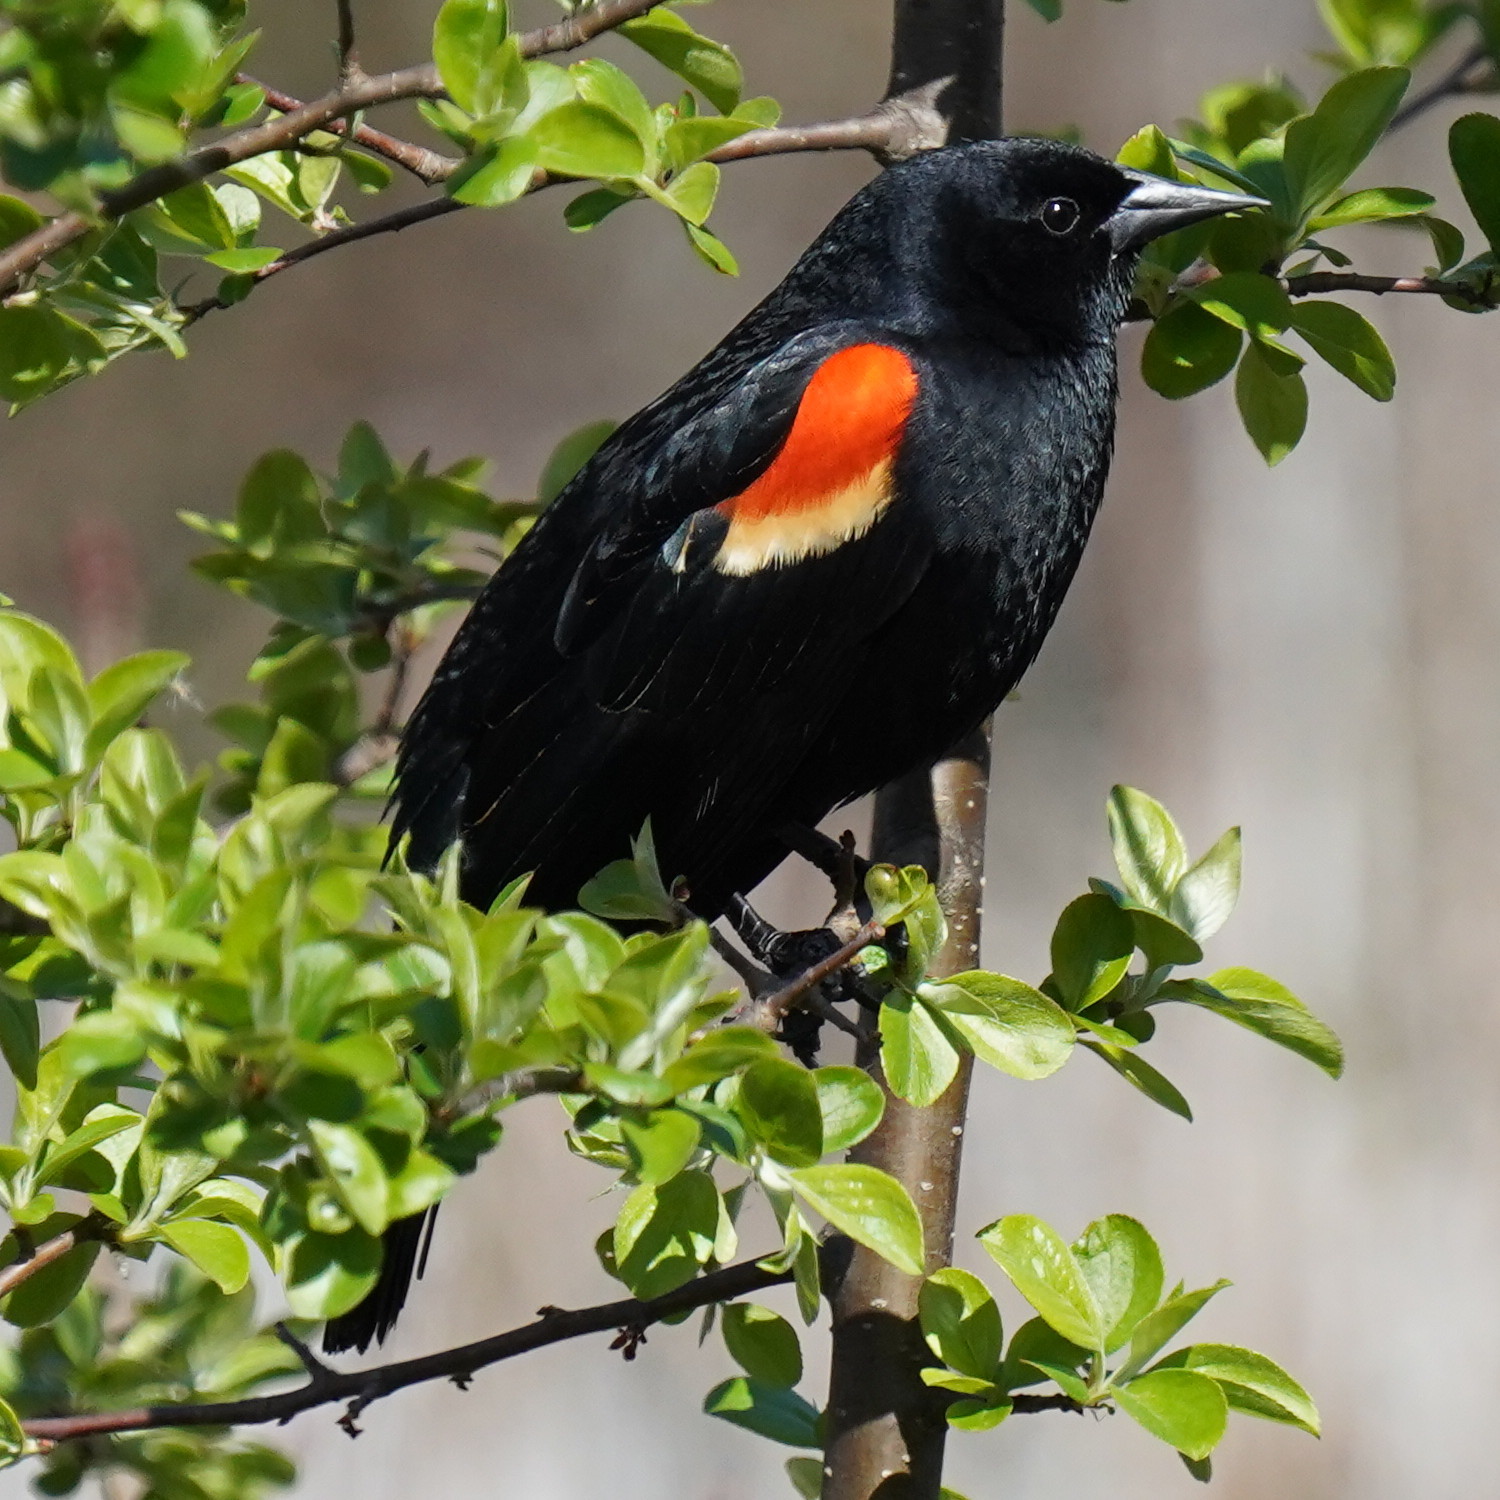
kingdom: Animalia
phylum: Chordata
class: Aves
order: Passeriformes
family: Icteridae
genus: Agelaius
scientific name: Agelaius phoeniceus
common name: Red-winged blackbird
